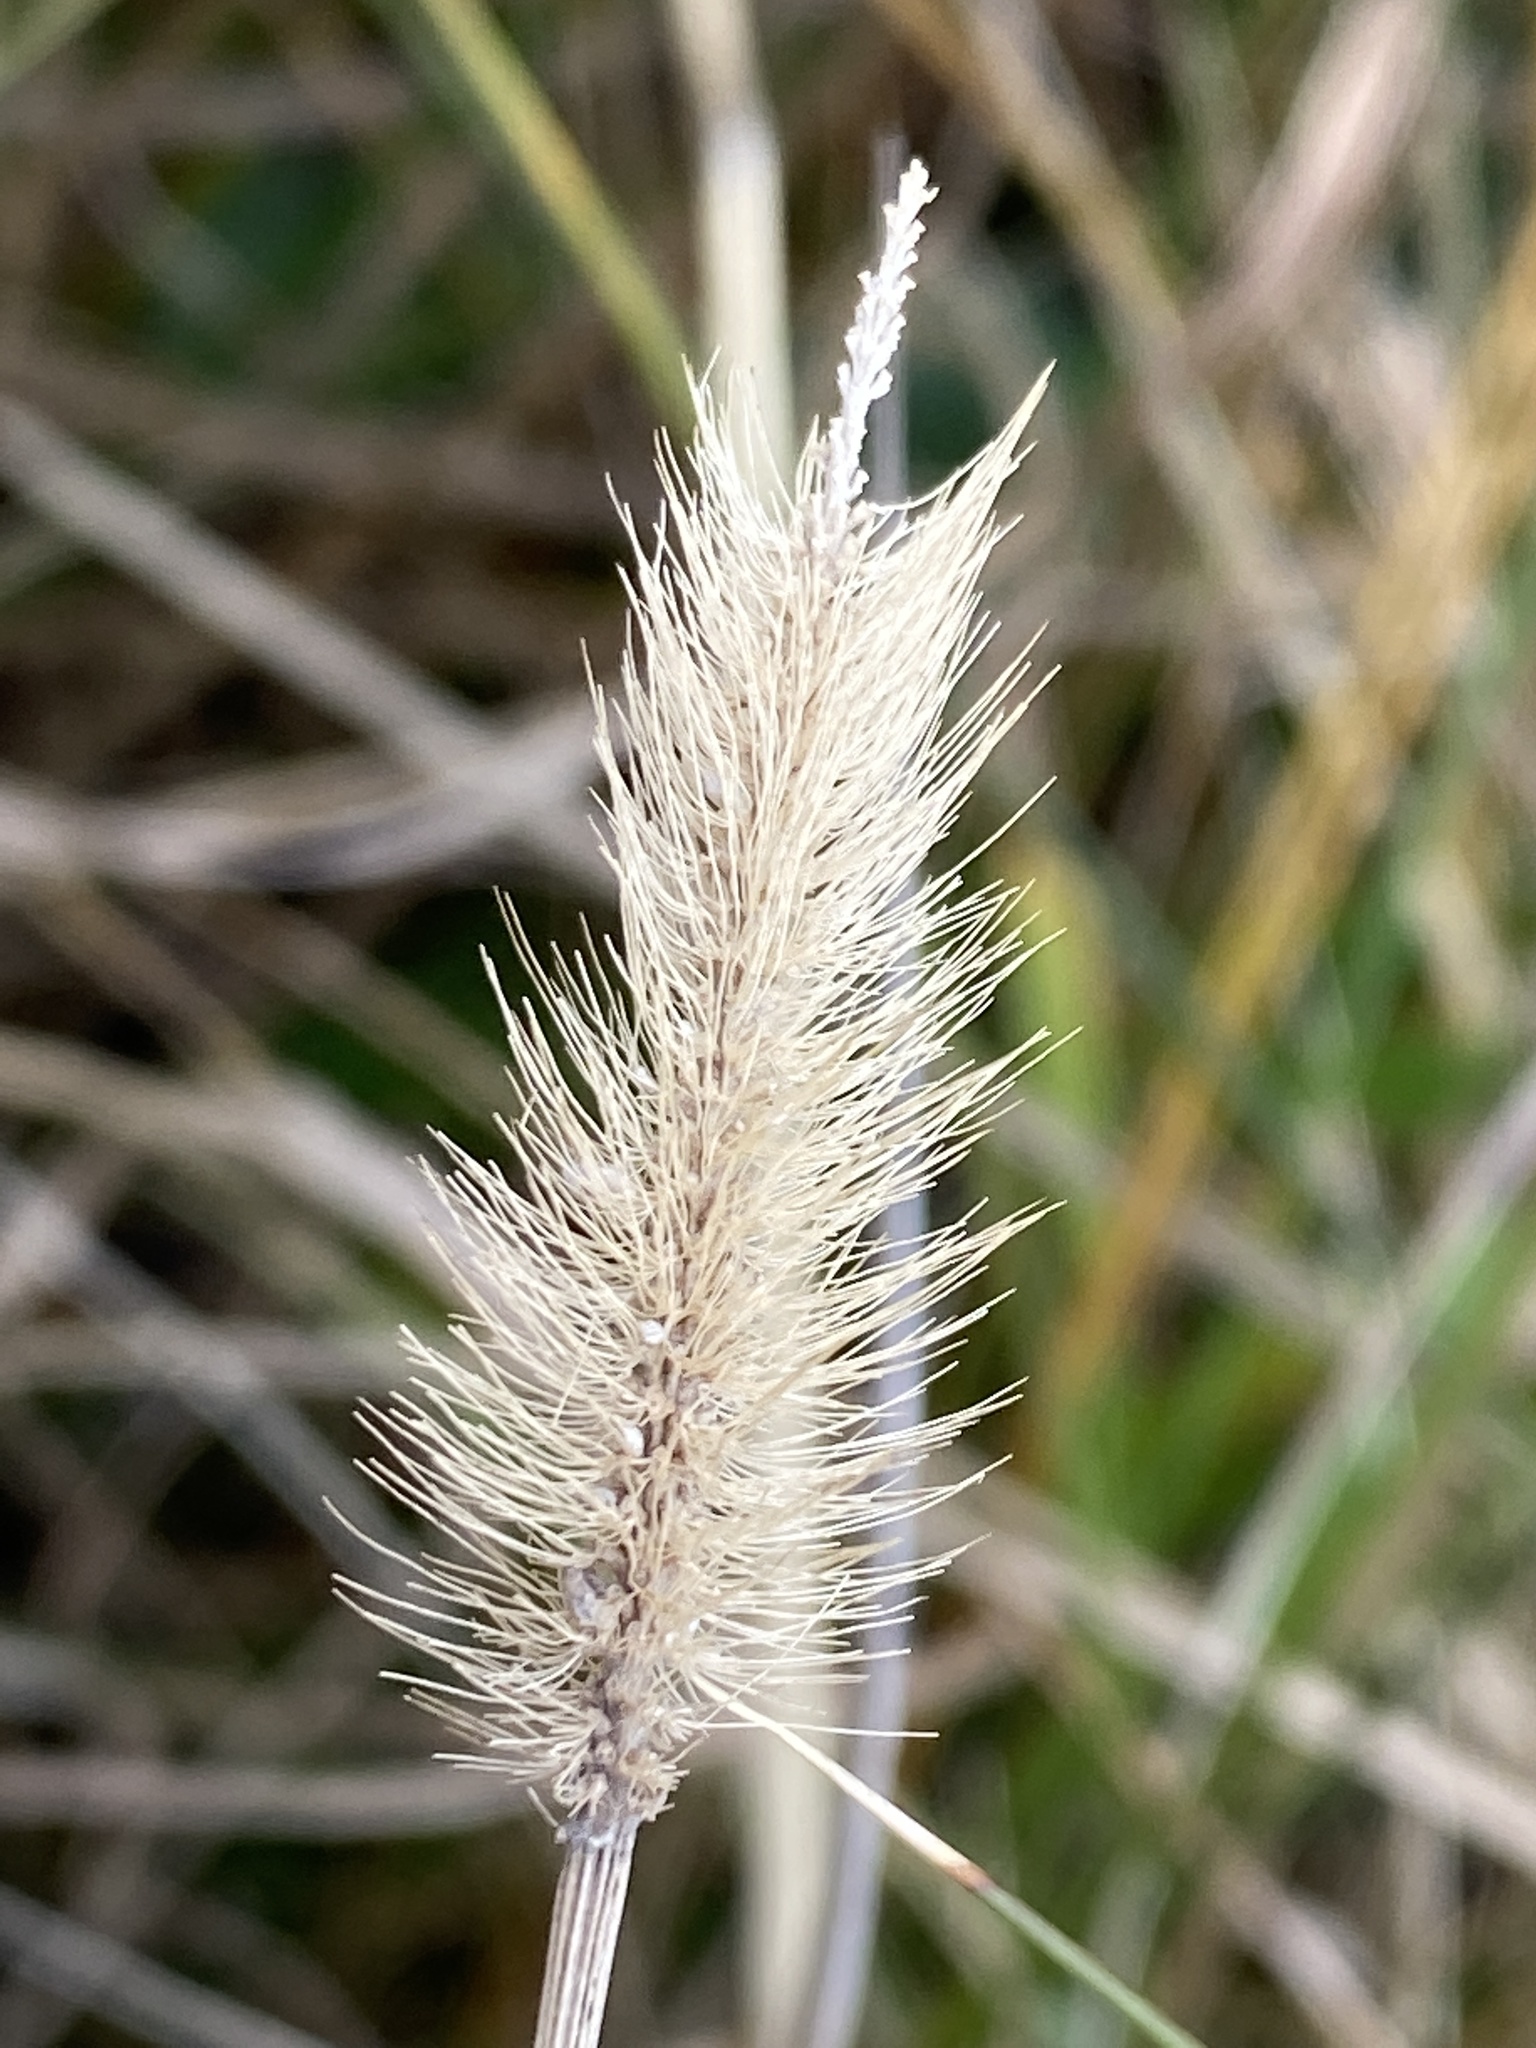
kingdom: Plantae
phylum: Tracheophyta
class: Liliopsida
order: Poales
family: Poaceae
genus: Setaria
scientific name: Setaria parviflora
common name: Knotroot bristle-grass
